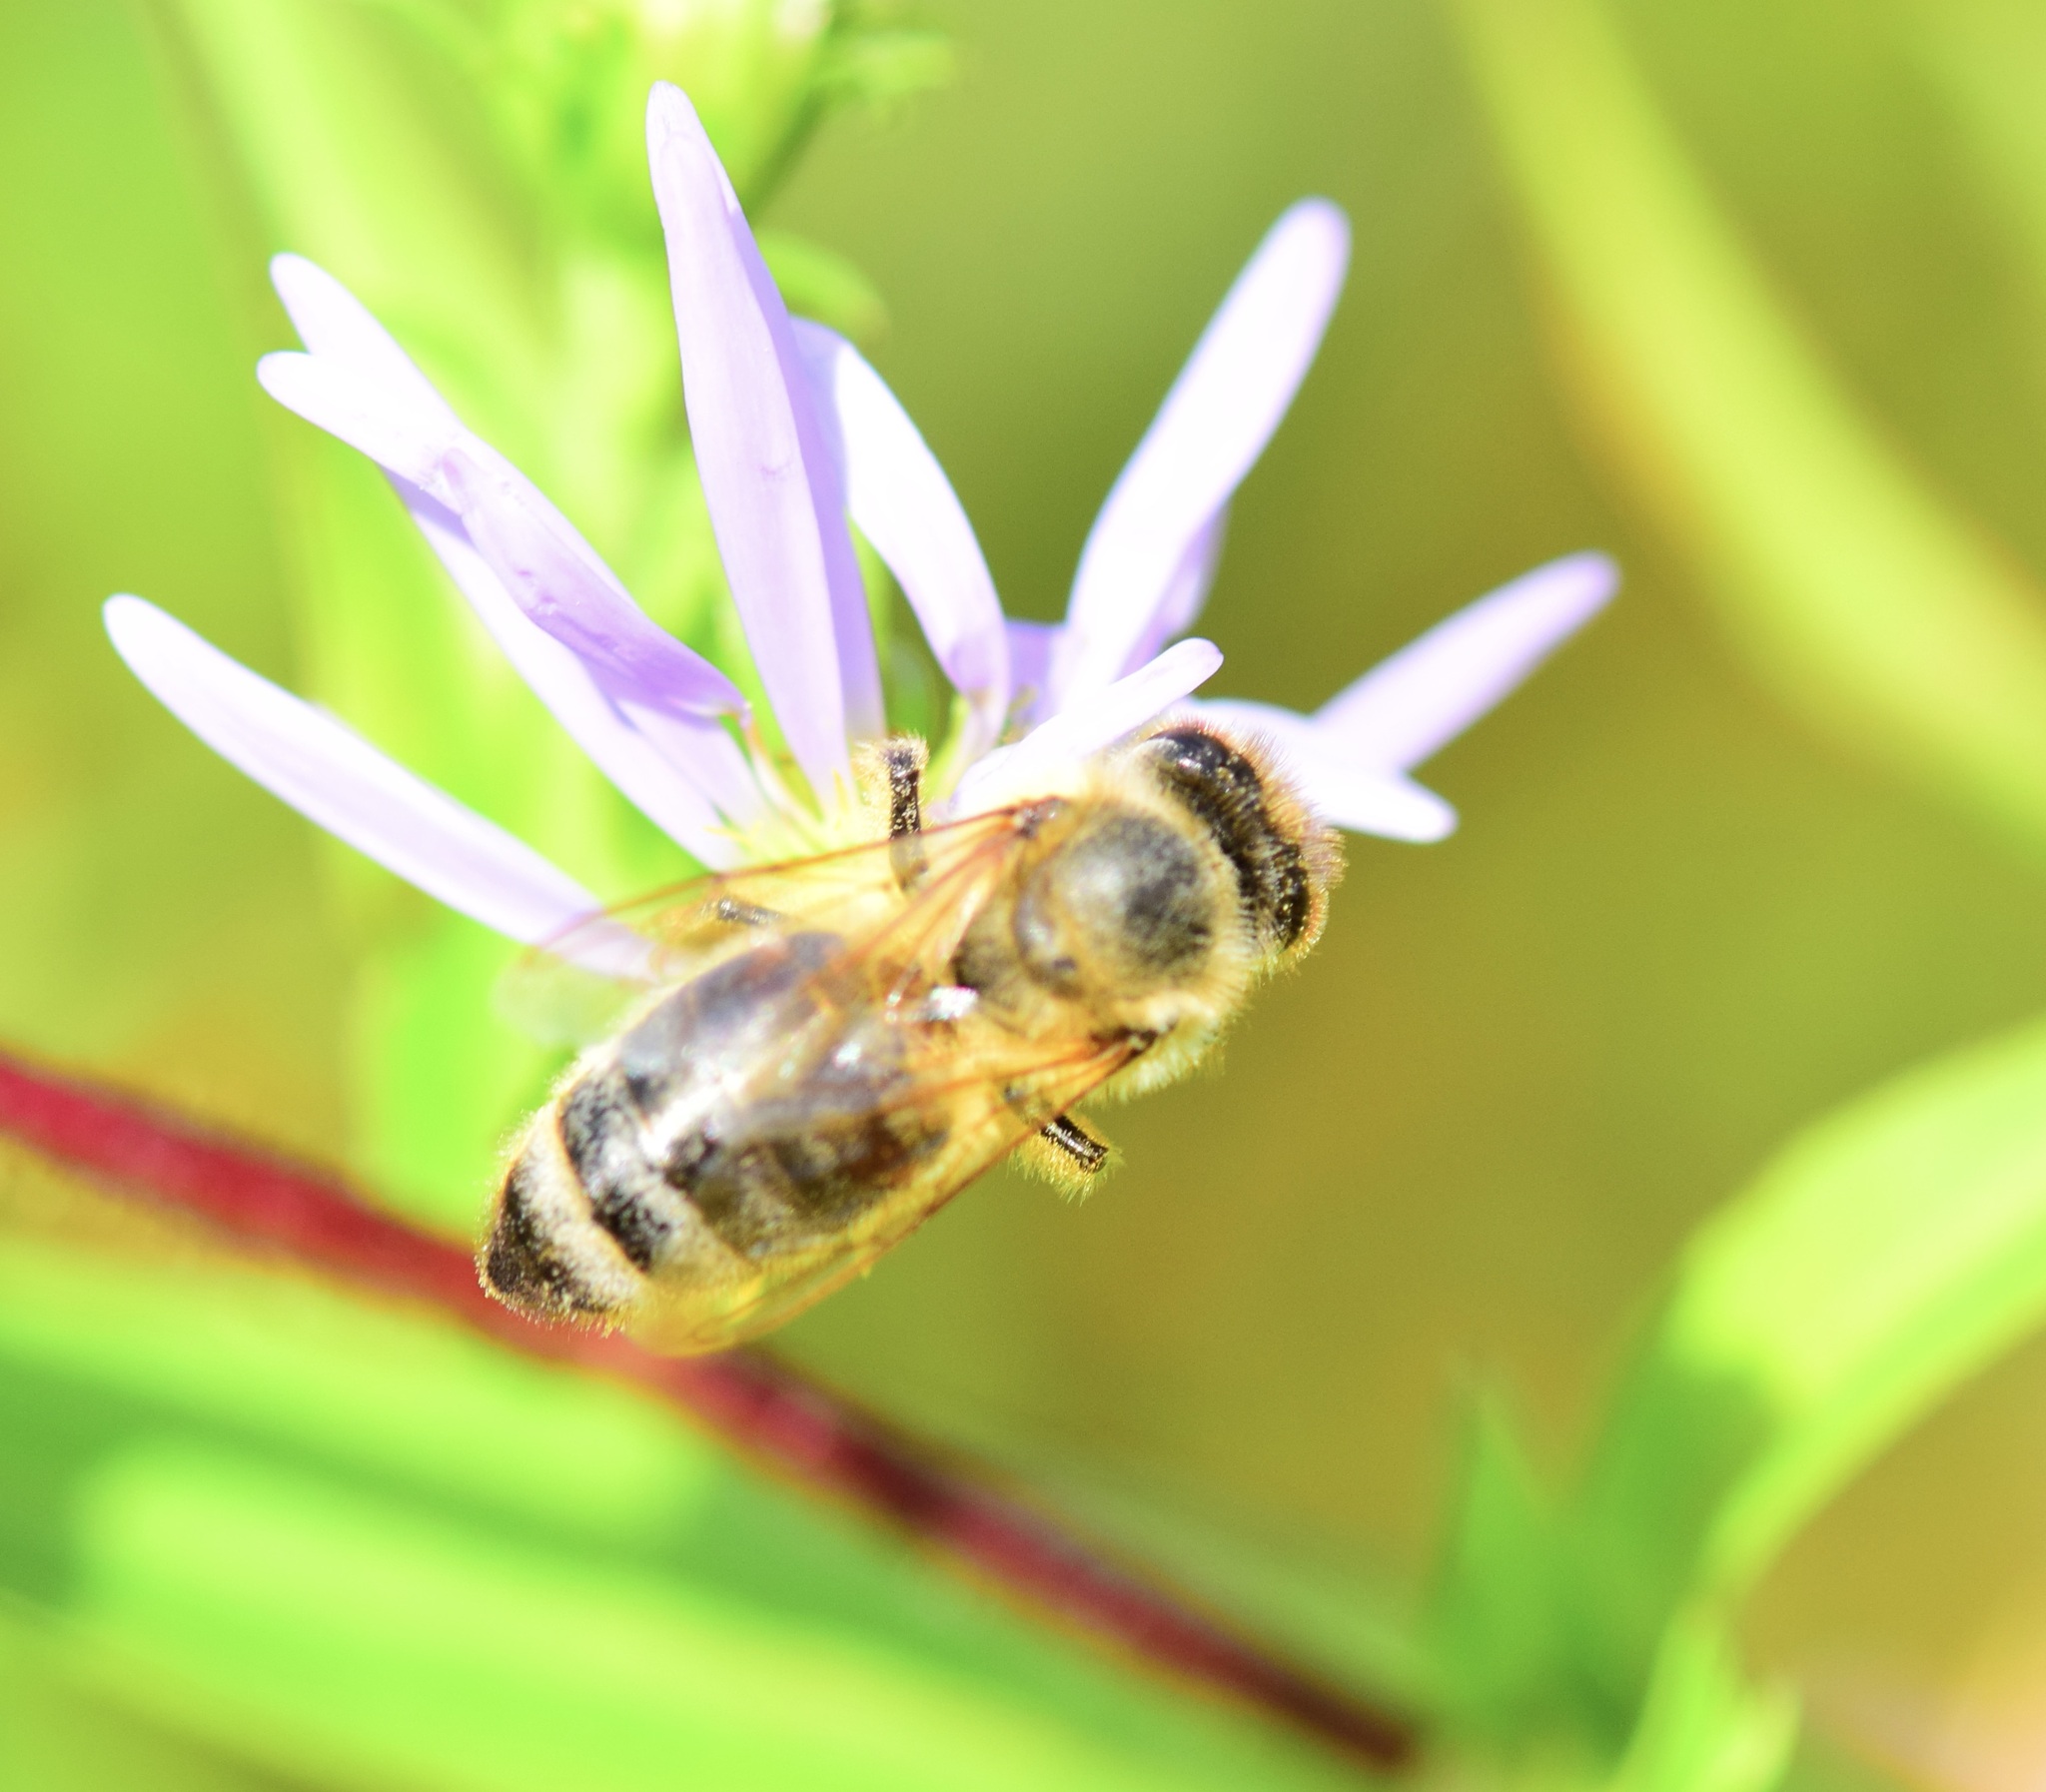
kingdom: Animalia
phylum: Arthropoda
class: Insecta
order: Hymenoptera
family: Apidae
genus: Apis
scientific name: Apis mellifera
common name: Honey bee
